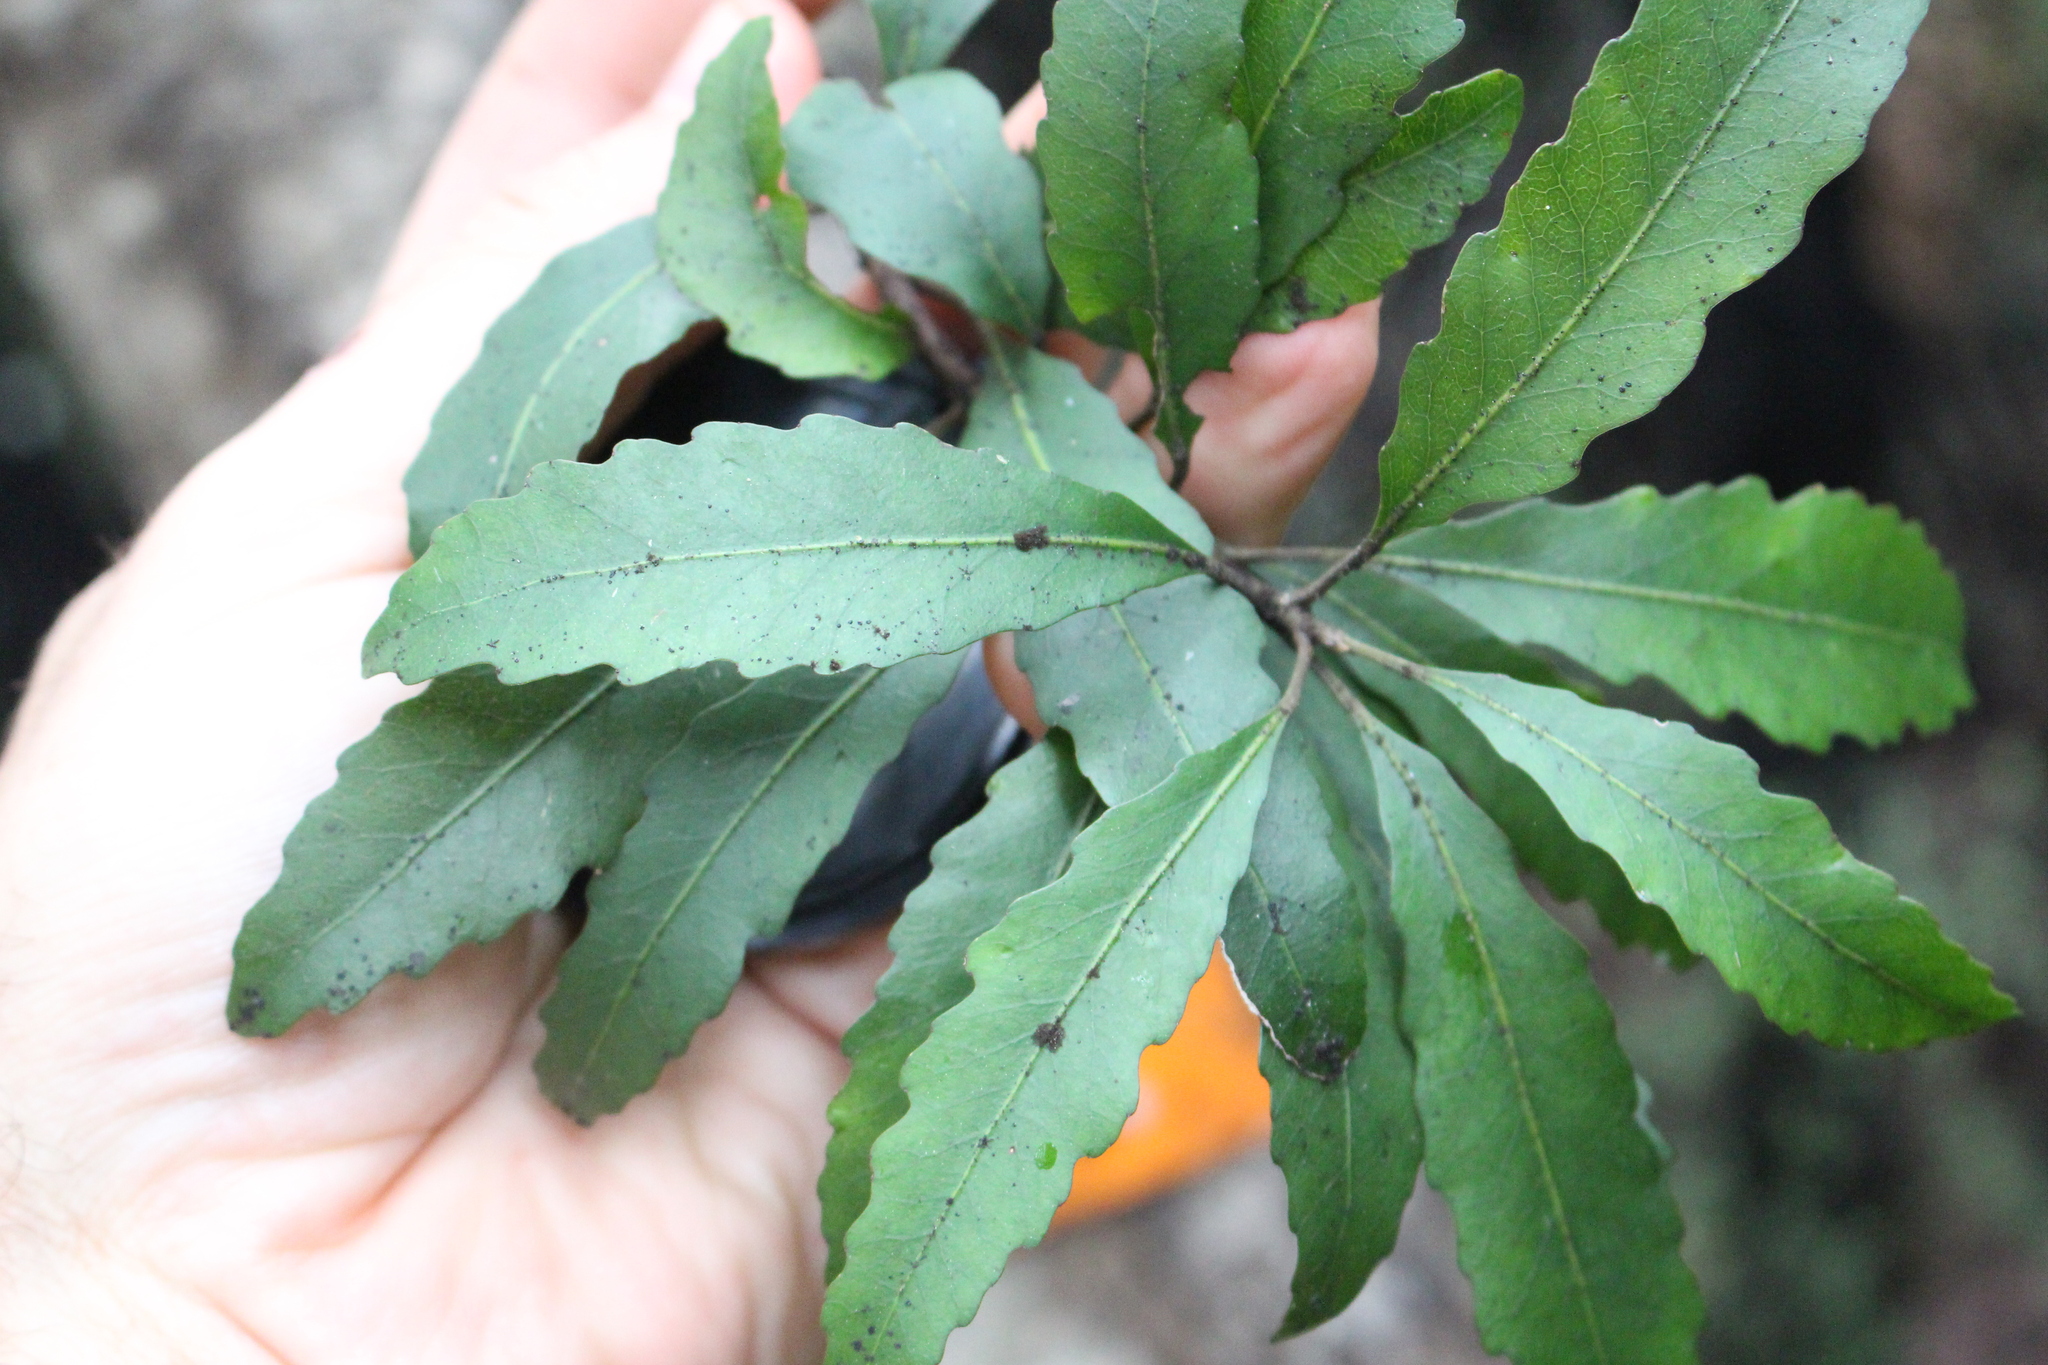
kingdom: Plantae
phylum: Tracheophyta
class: Magnoliopsida
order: Oxalidales
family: Elaeocarpaceae
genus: Elaeocarpus
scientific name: Elaeocarpus hookerianus
